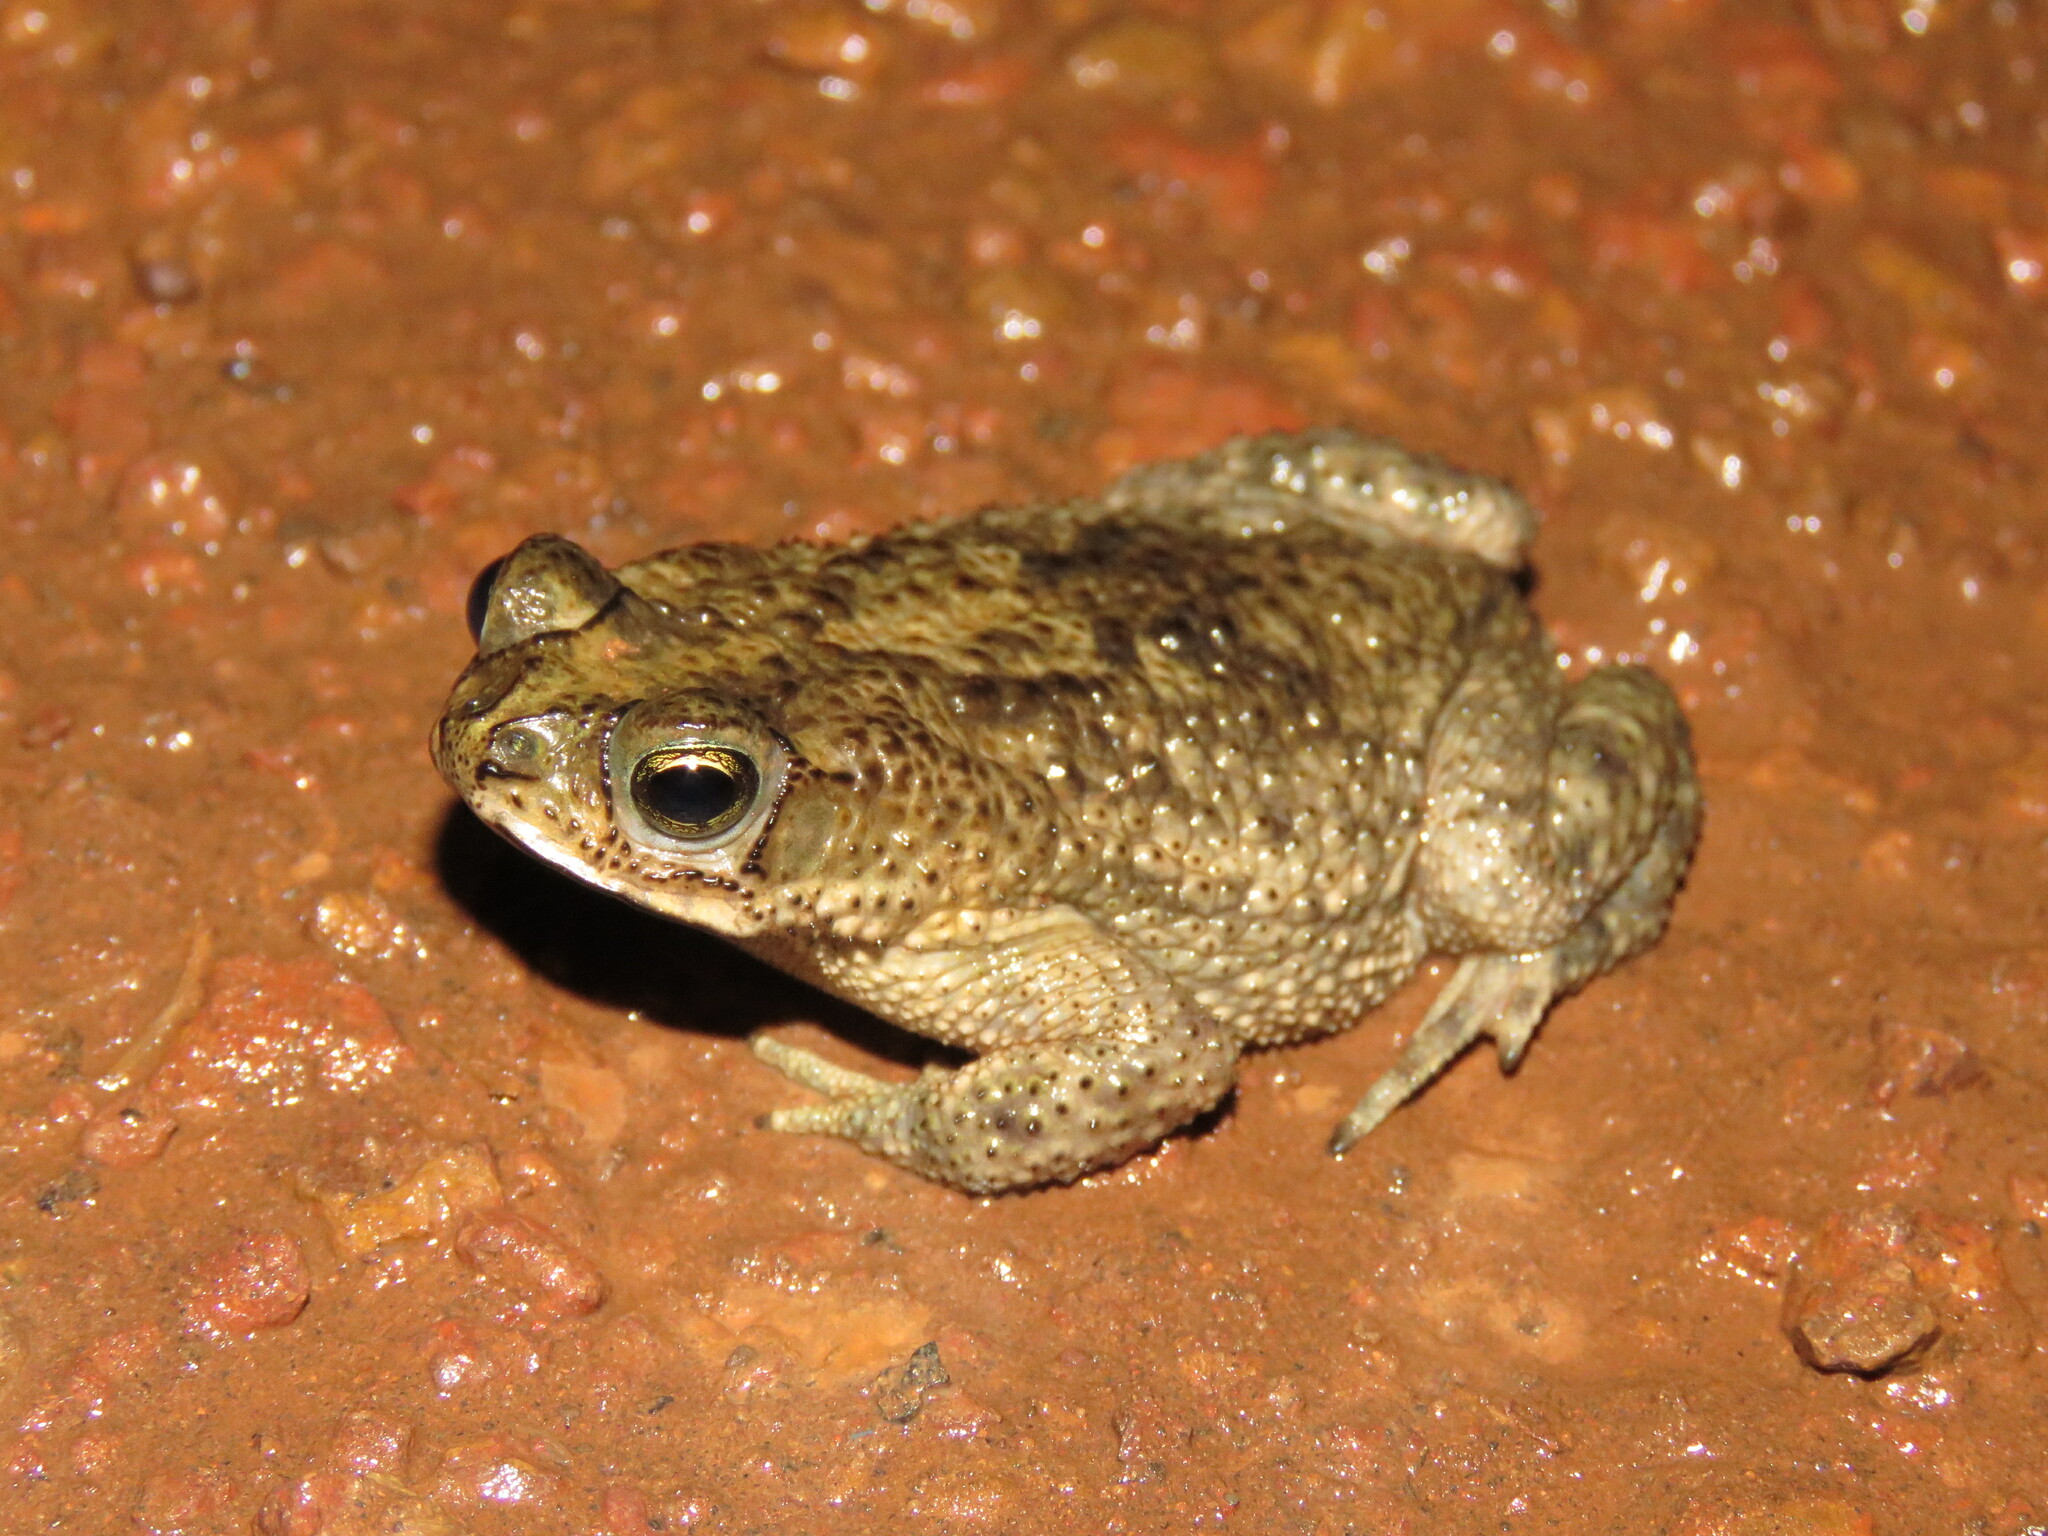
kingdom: Animalia
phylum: Chordata
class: Amphibia
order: Anura
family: Bufonidae
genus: Rhinella
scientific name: Rhinella major
